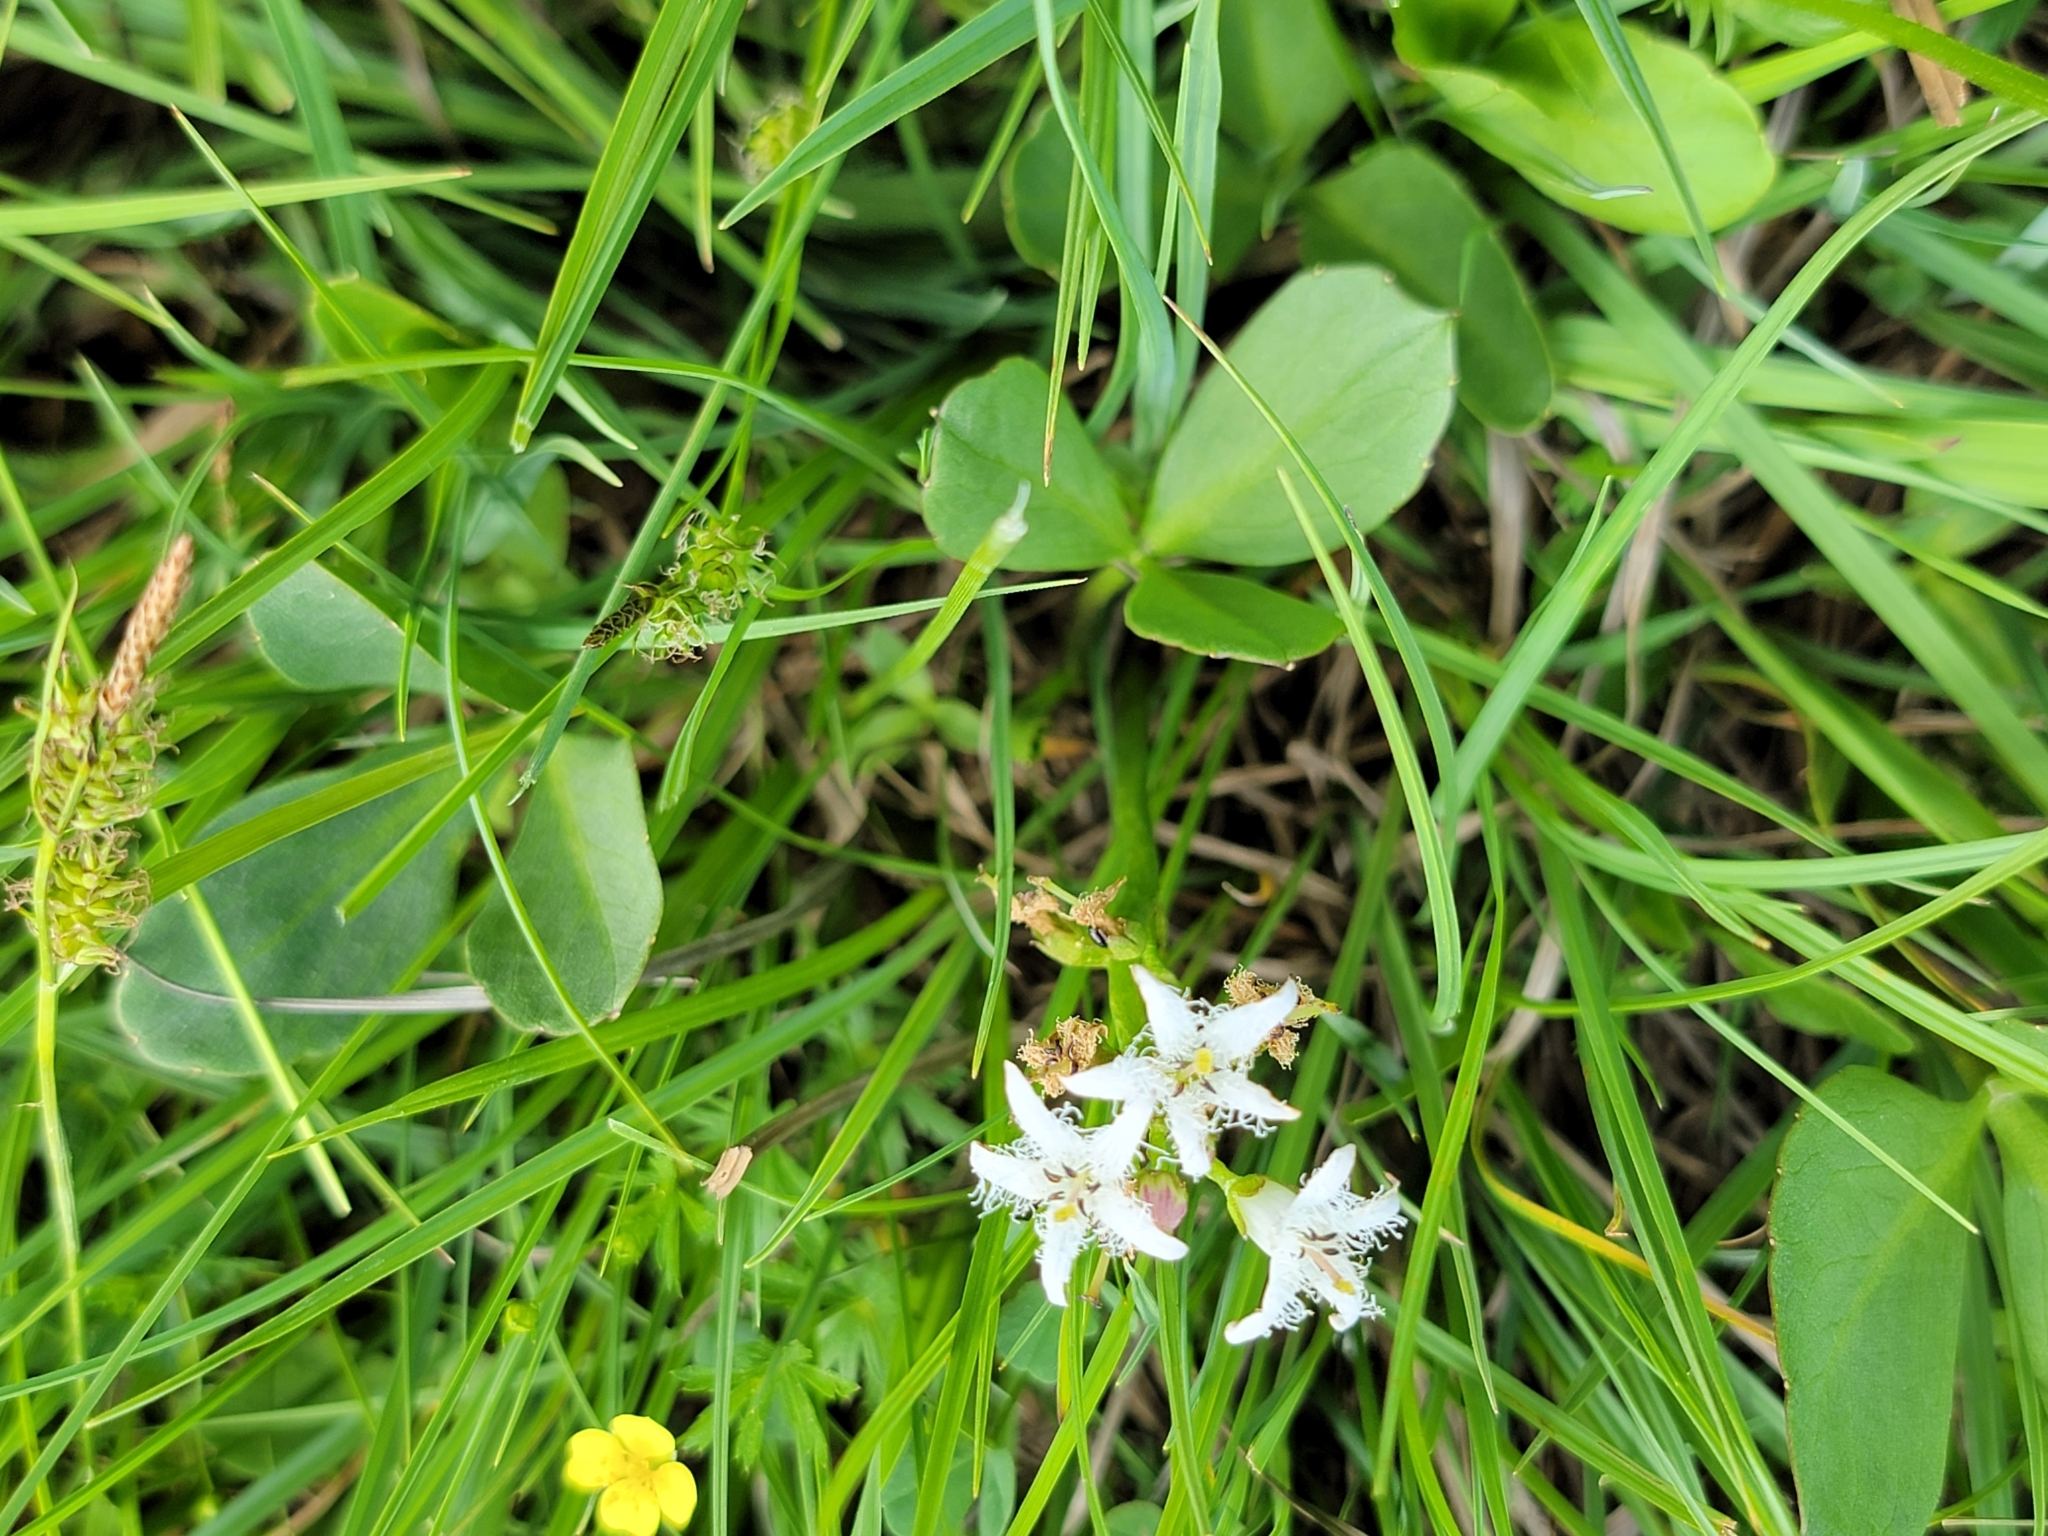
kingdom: Plantae
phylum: Tracheophyta
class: Magnoliopsida
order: Asterales
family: Menyanthaceae
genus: Menyanthes
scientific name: Menyanthes trifoliata
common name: Bogbean
